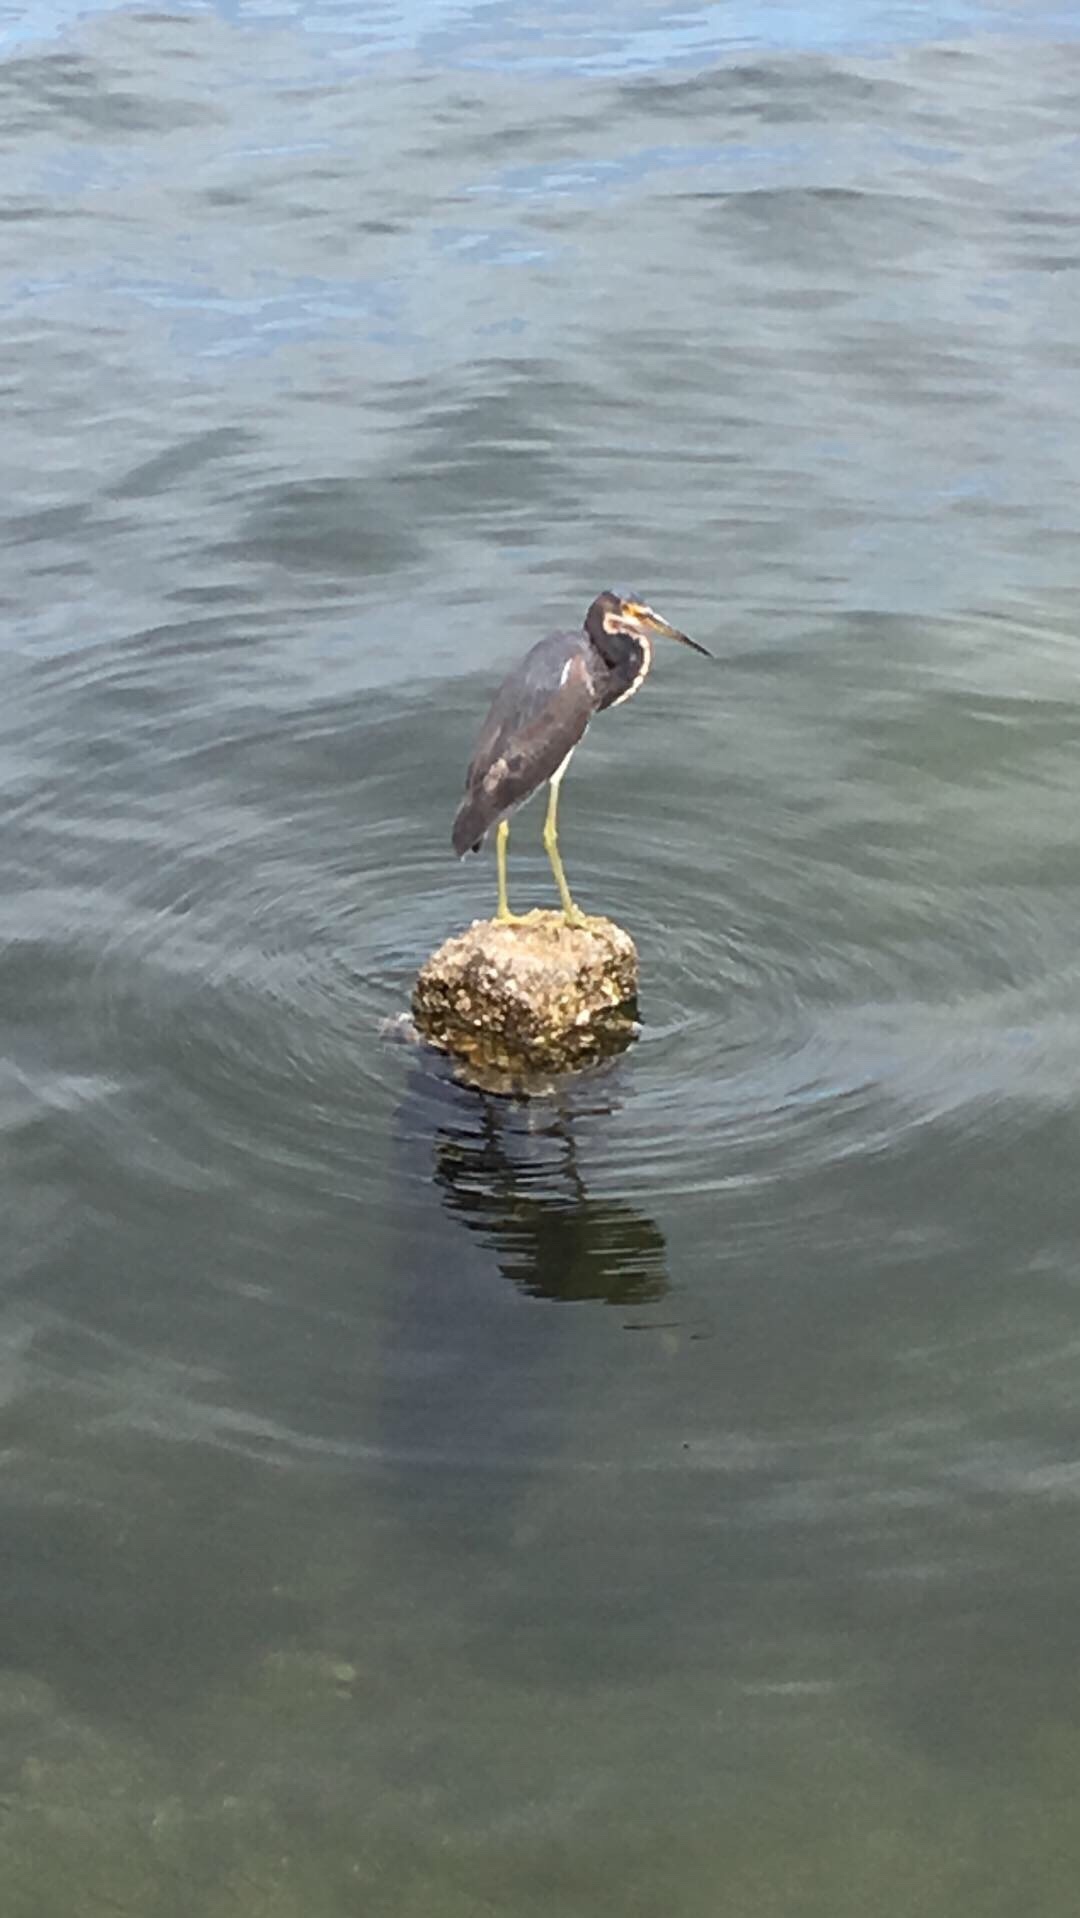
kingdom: Animalia
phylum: Chordata
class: Aves
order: Pelecaniformes
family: Ardeidae
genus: Egretta
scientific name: Egretta tricolor
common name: Tricolored heron
